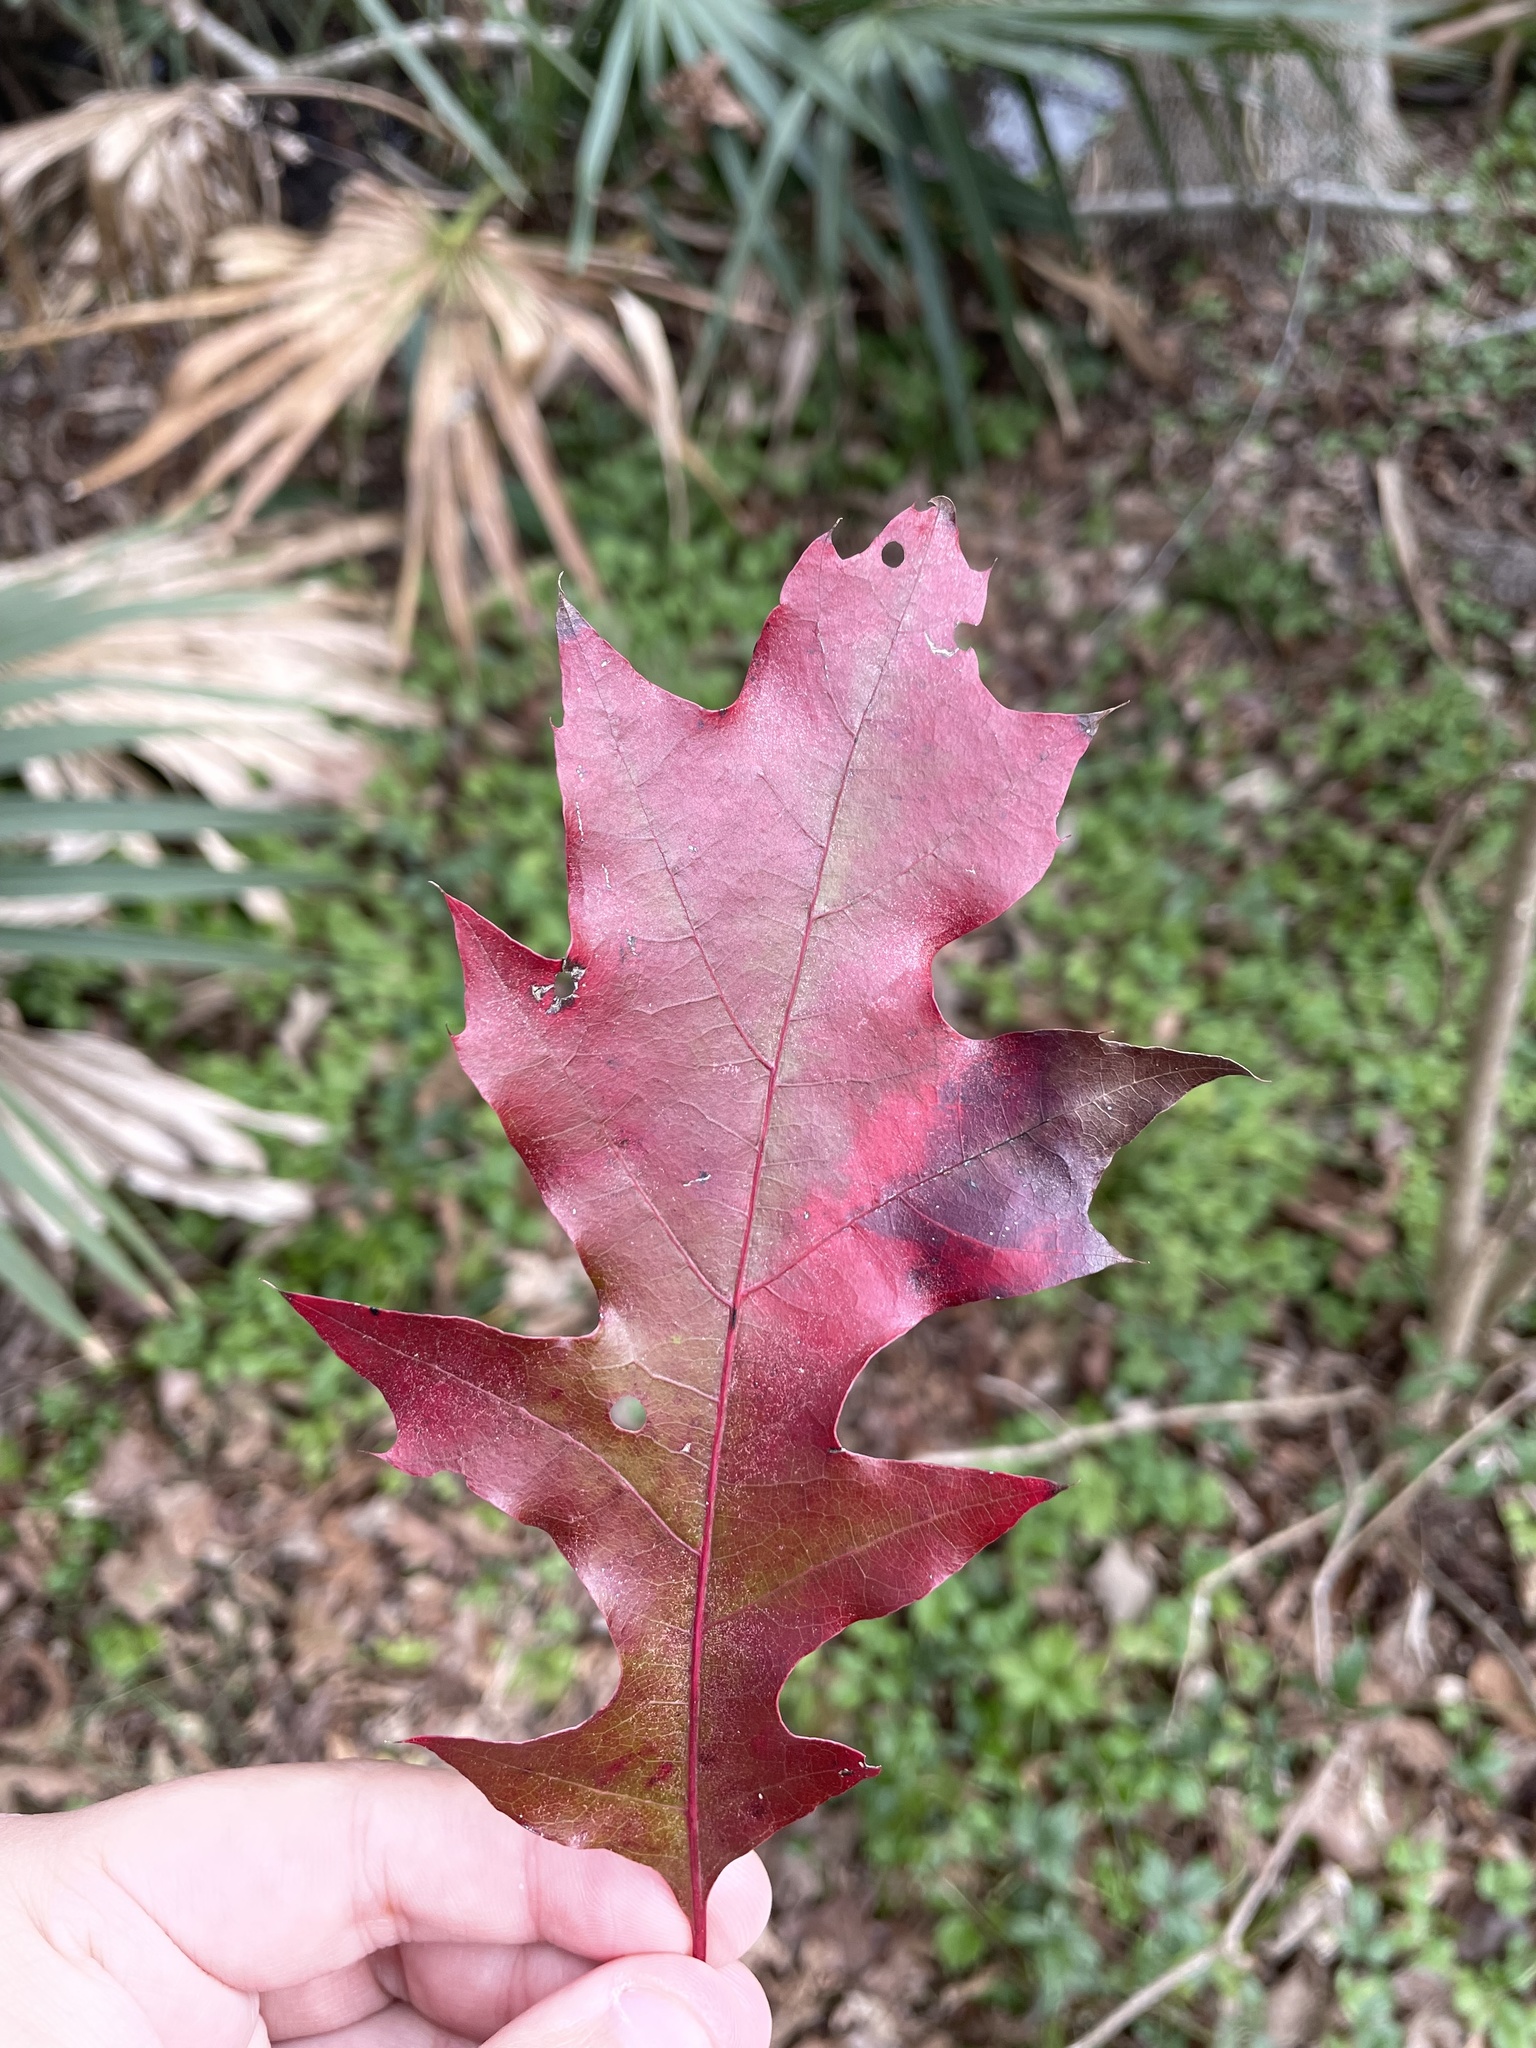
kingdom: Plantae
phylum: Tracheophyta
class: Magnoliopsida
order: Fagales
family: Fagaceae
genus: Quercus
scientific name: Quercus shumardii
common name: Shumard oak
